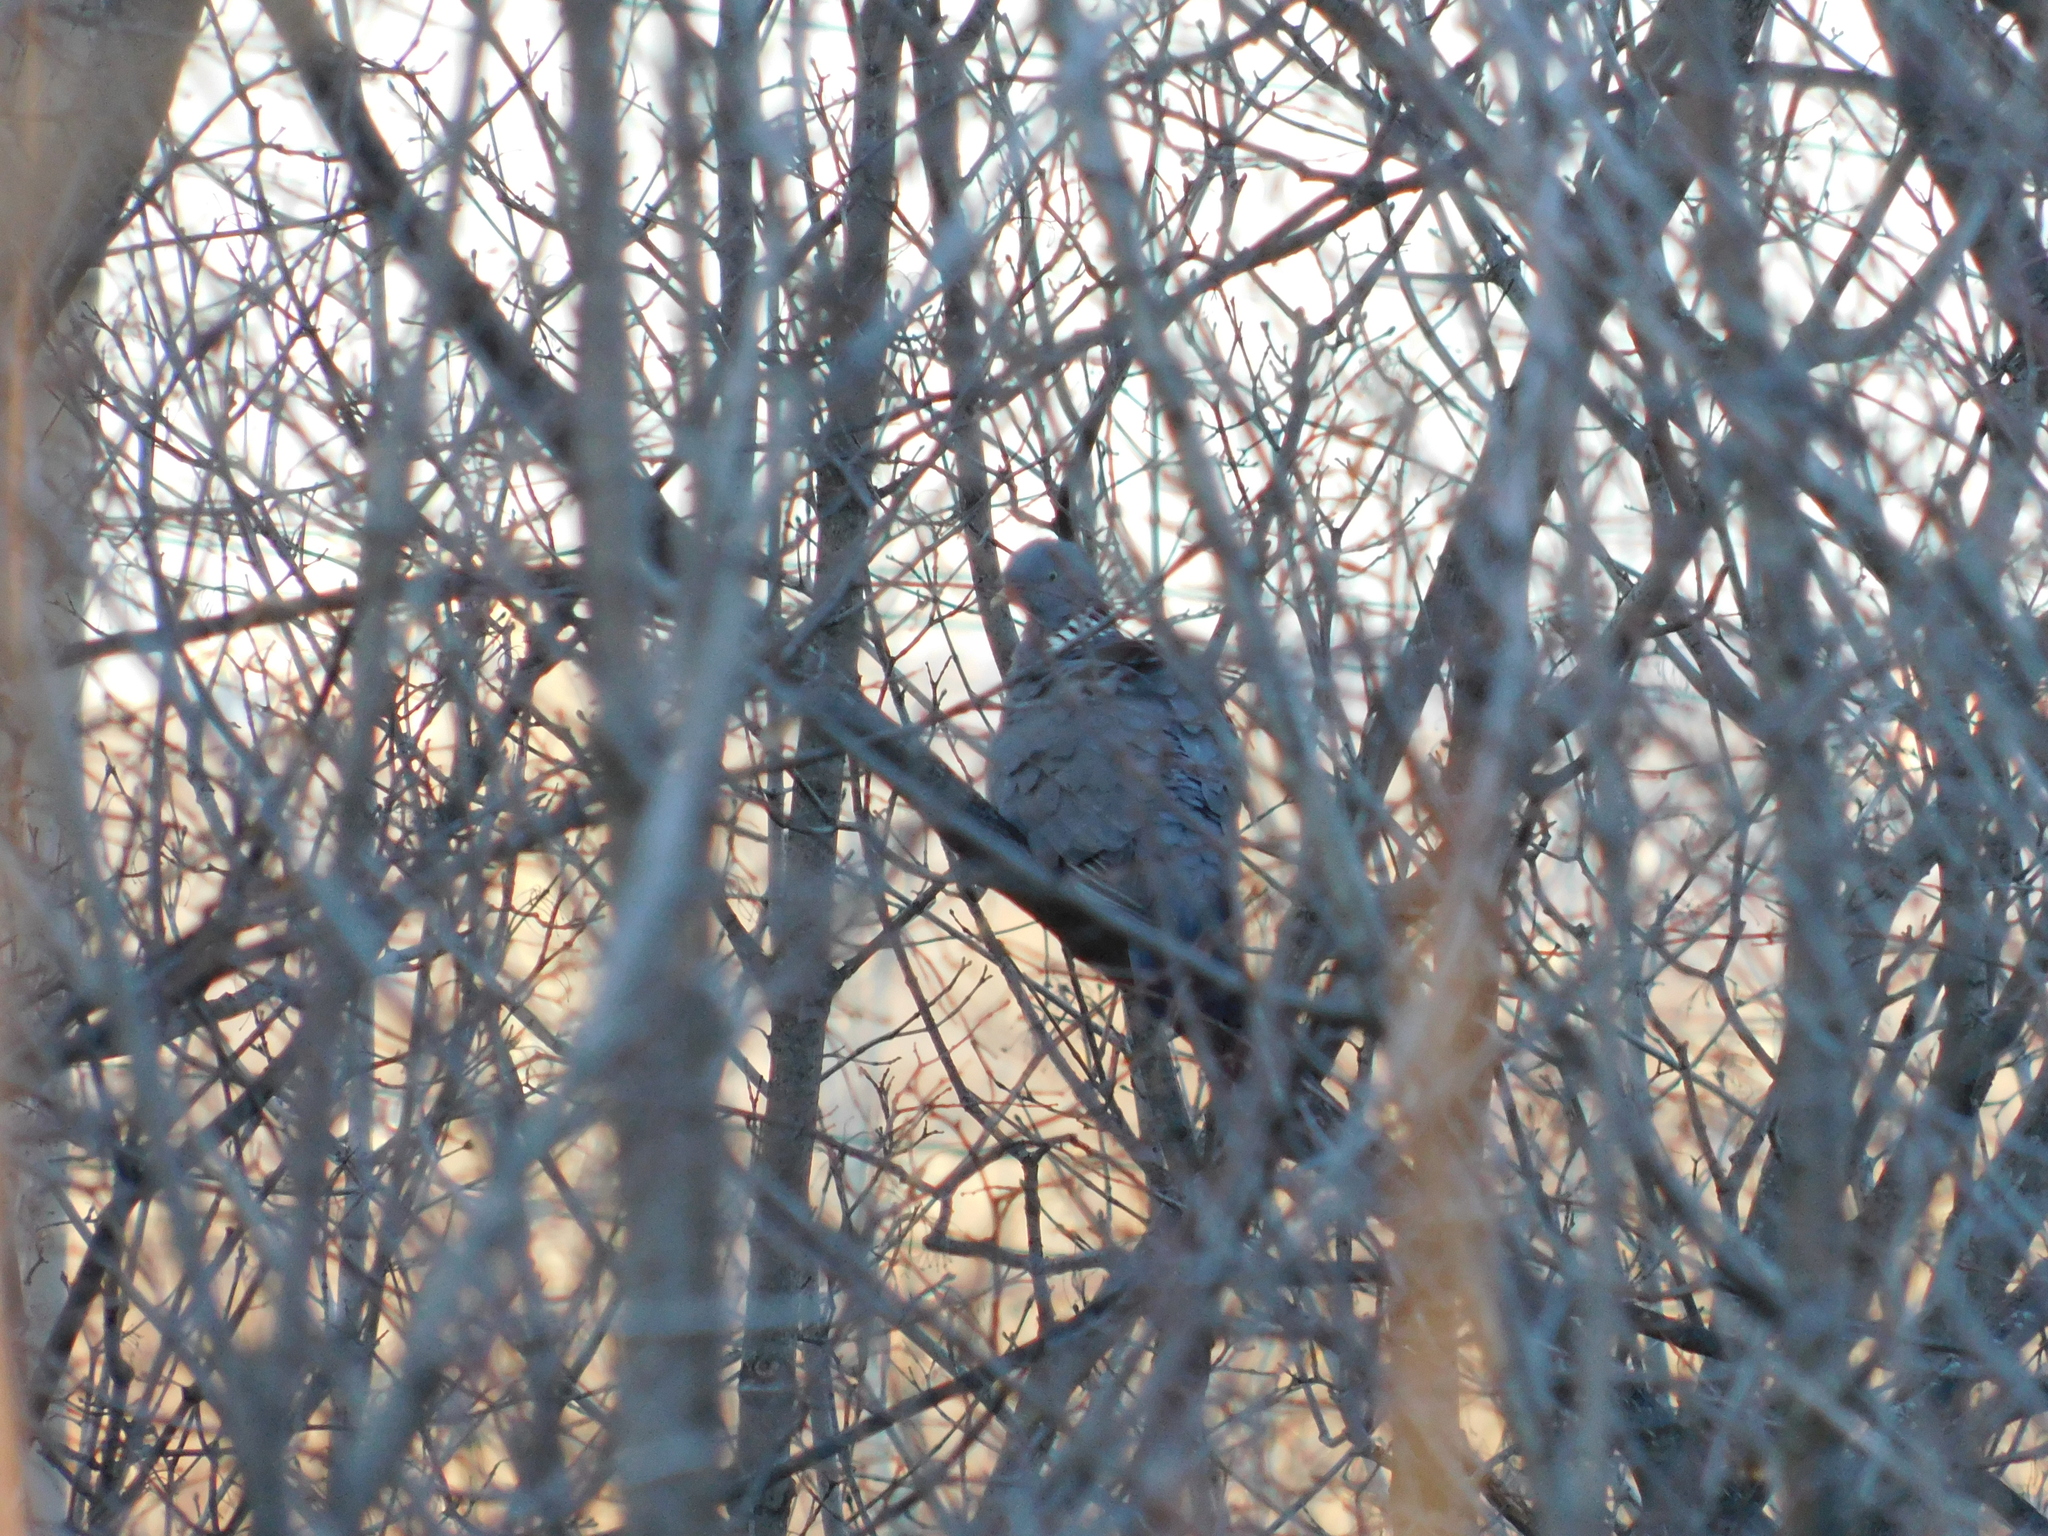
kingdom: Animalia
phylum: Chordata
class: Aves
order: Columbiformes
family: Columbidae
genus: Columba
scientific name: Columba palumbus
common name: Common wood pigeon
